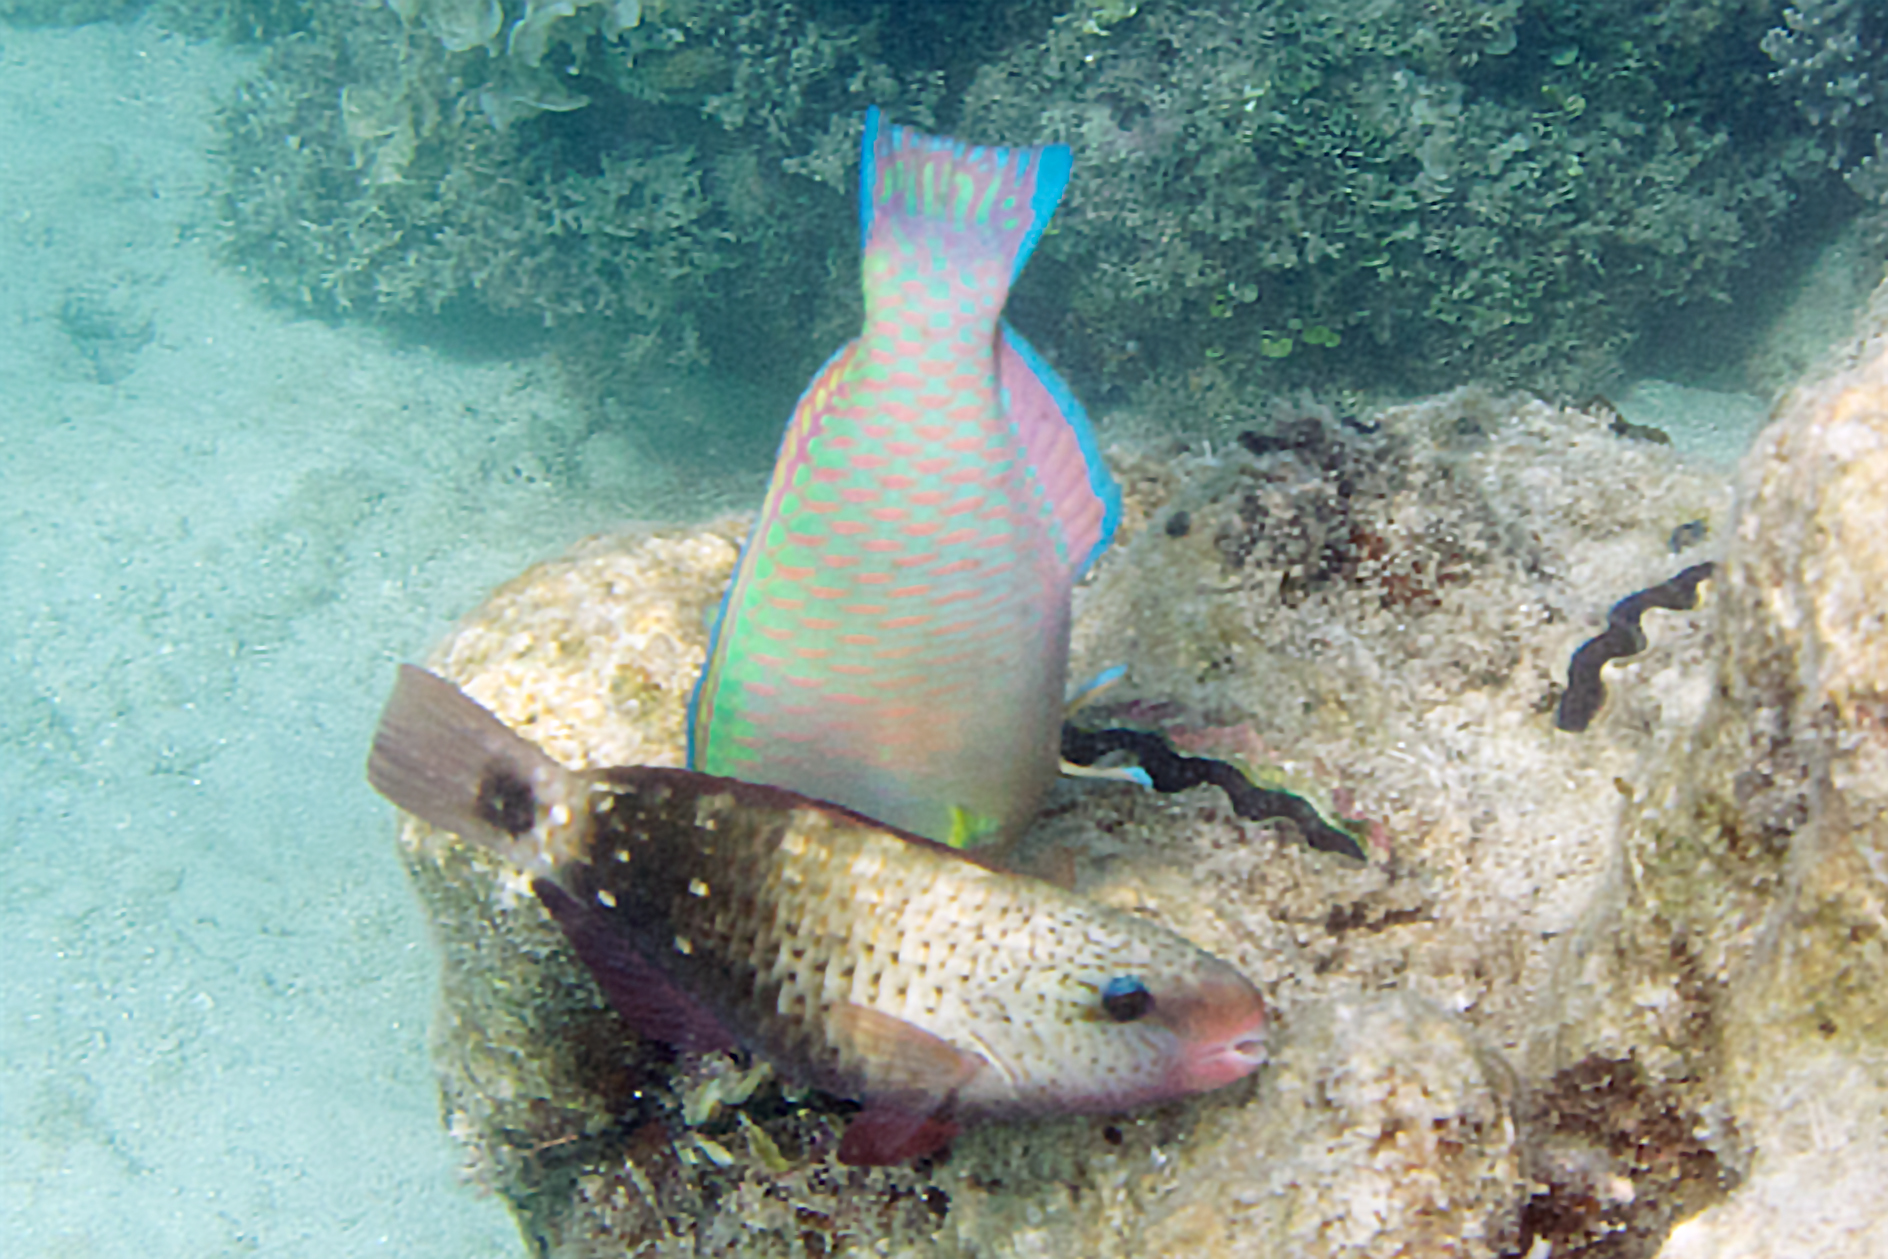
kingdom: Animalia
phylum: Chordata
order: Perciformes
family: Scaridae
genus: Chlorurus
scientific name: Chlorurus spilurus
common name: Bullethead parrotfish
